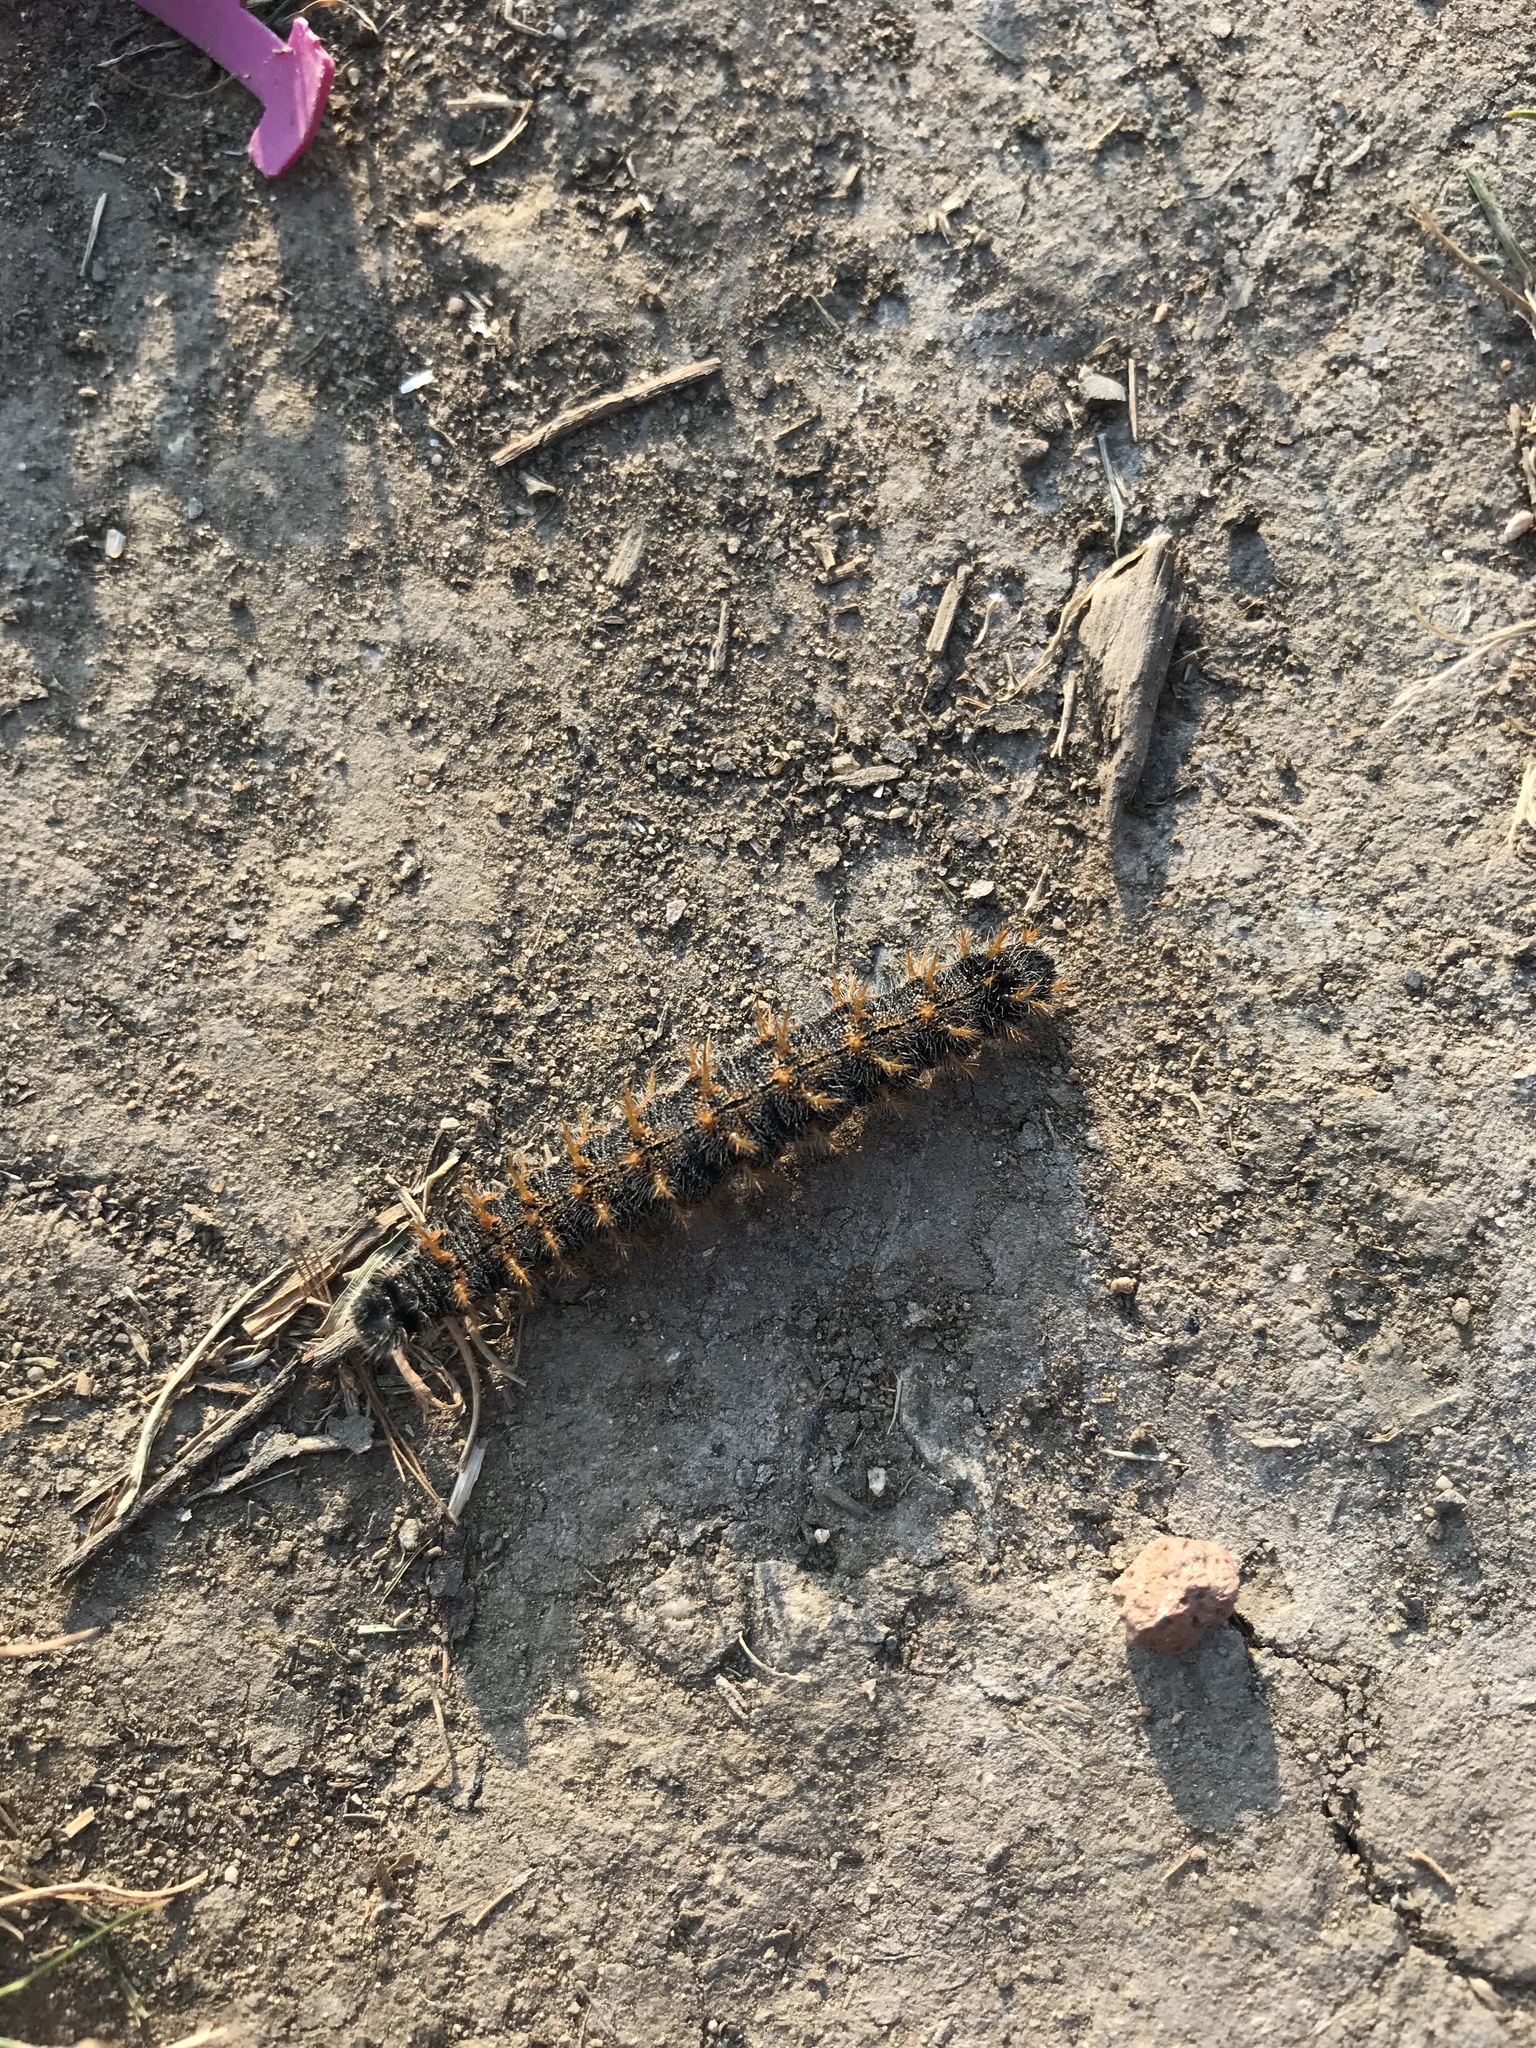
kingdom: Animalia
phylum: Arthropoda
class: Insecta
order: Lepidoptera
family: Nymphalidae
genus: Nymphalis
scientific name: Nymphalis polychloros
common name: Large tortoiseshell
